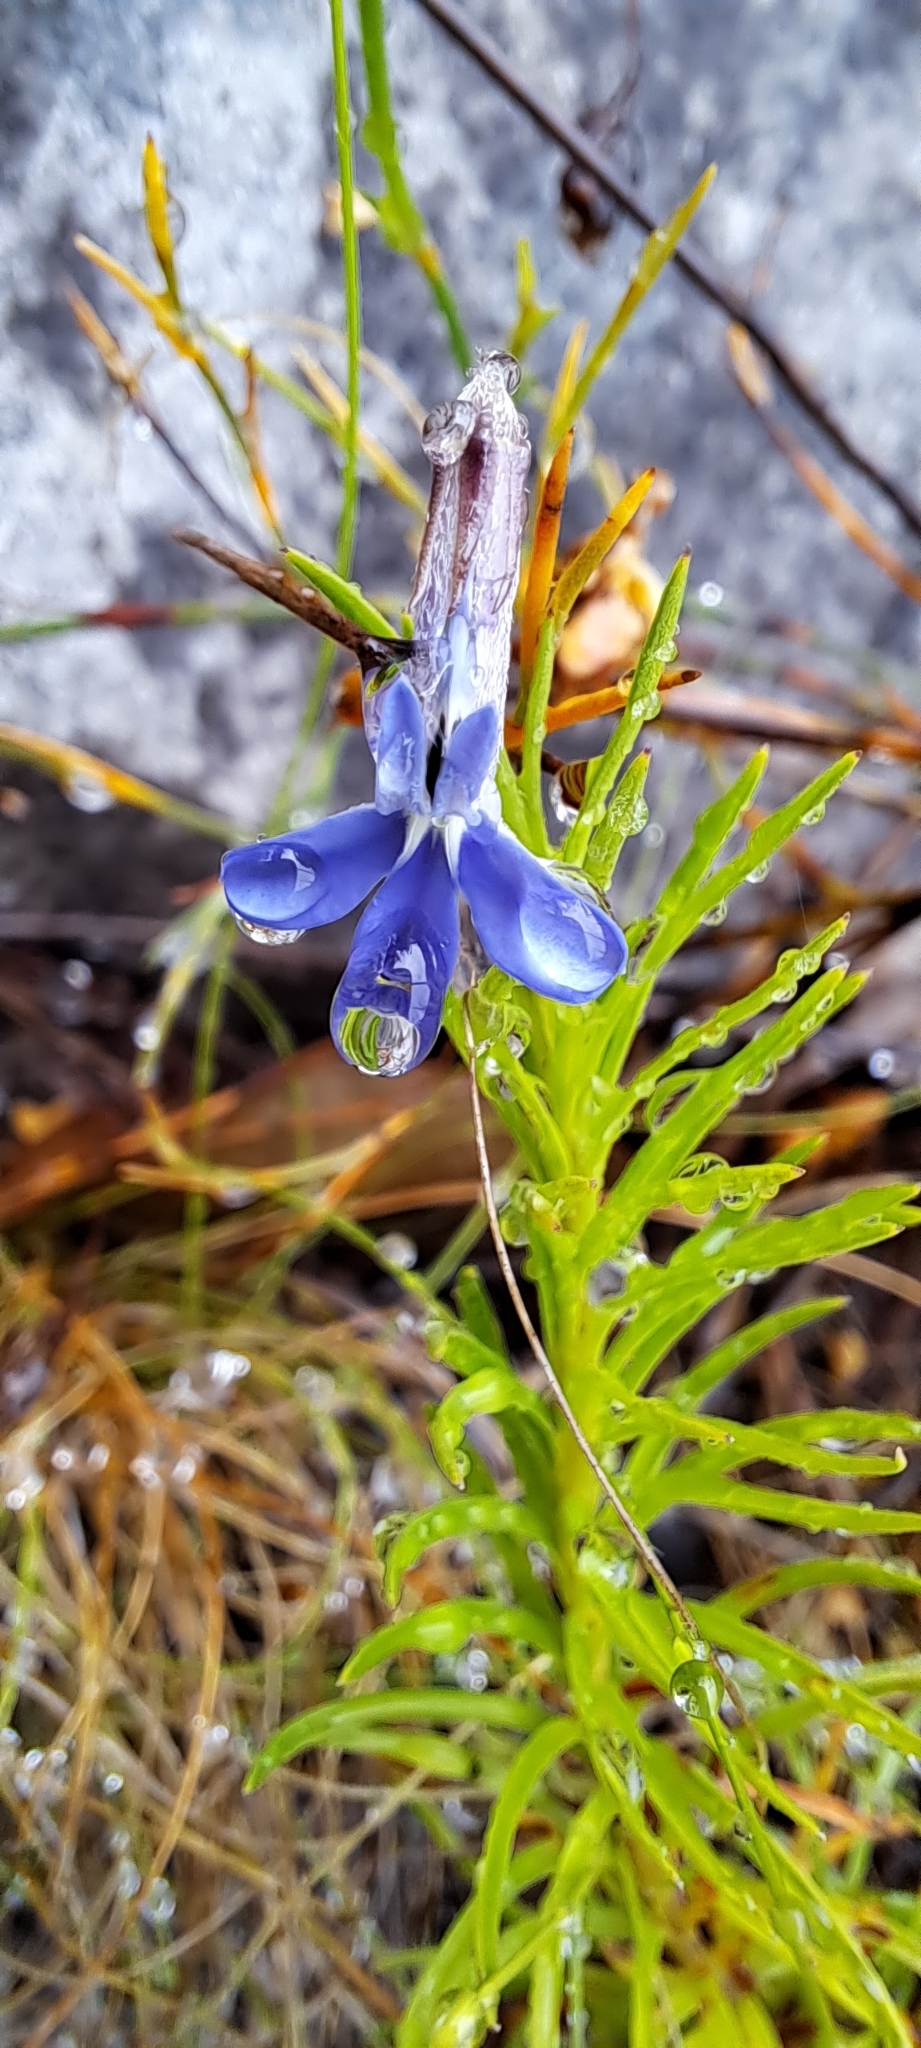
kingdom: Plantae
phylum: Tracheophyta
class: Magnoliopsida
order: Asterales
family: Campanulaceae
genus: Lobelia
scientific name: Lobelia pinifolia
